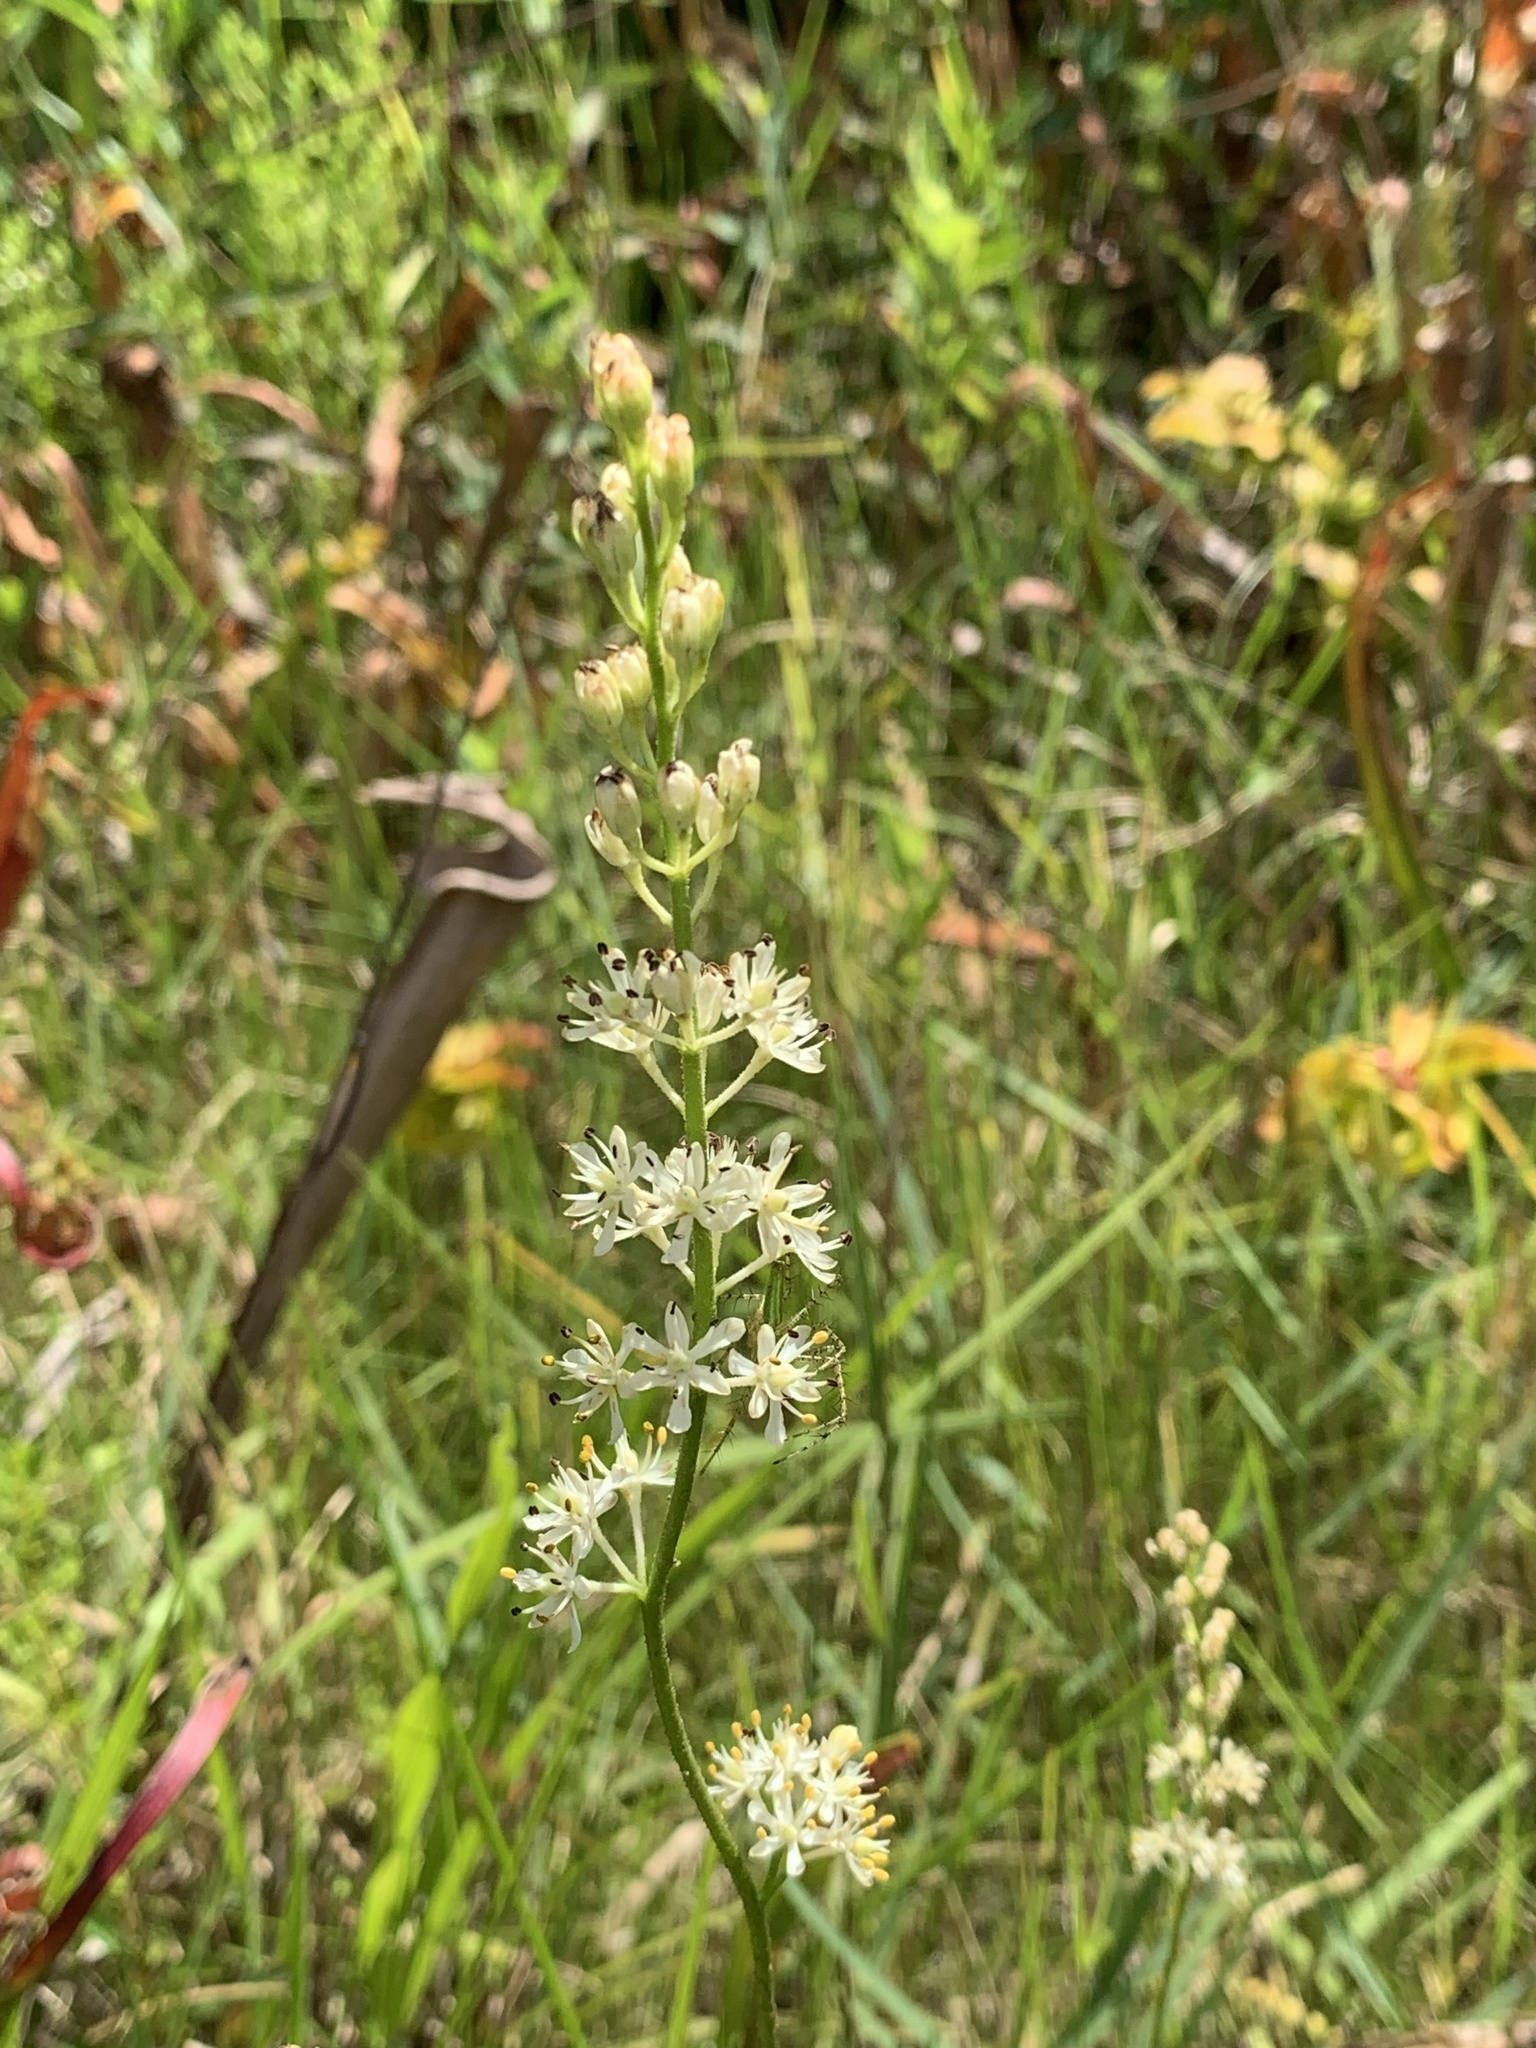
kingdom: Plantae
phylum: Tracheophyta
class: Liliopsida
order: Alismatales
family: Tofieldiaceae
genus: Triantha
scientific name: Triantha racemosa
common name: Coastal false asphodel
